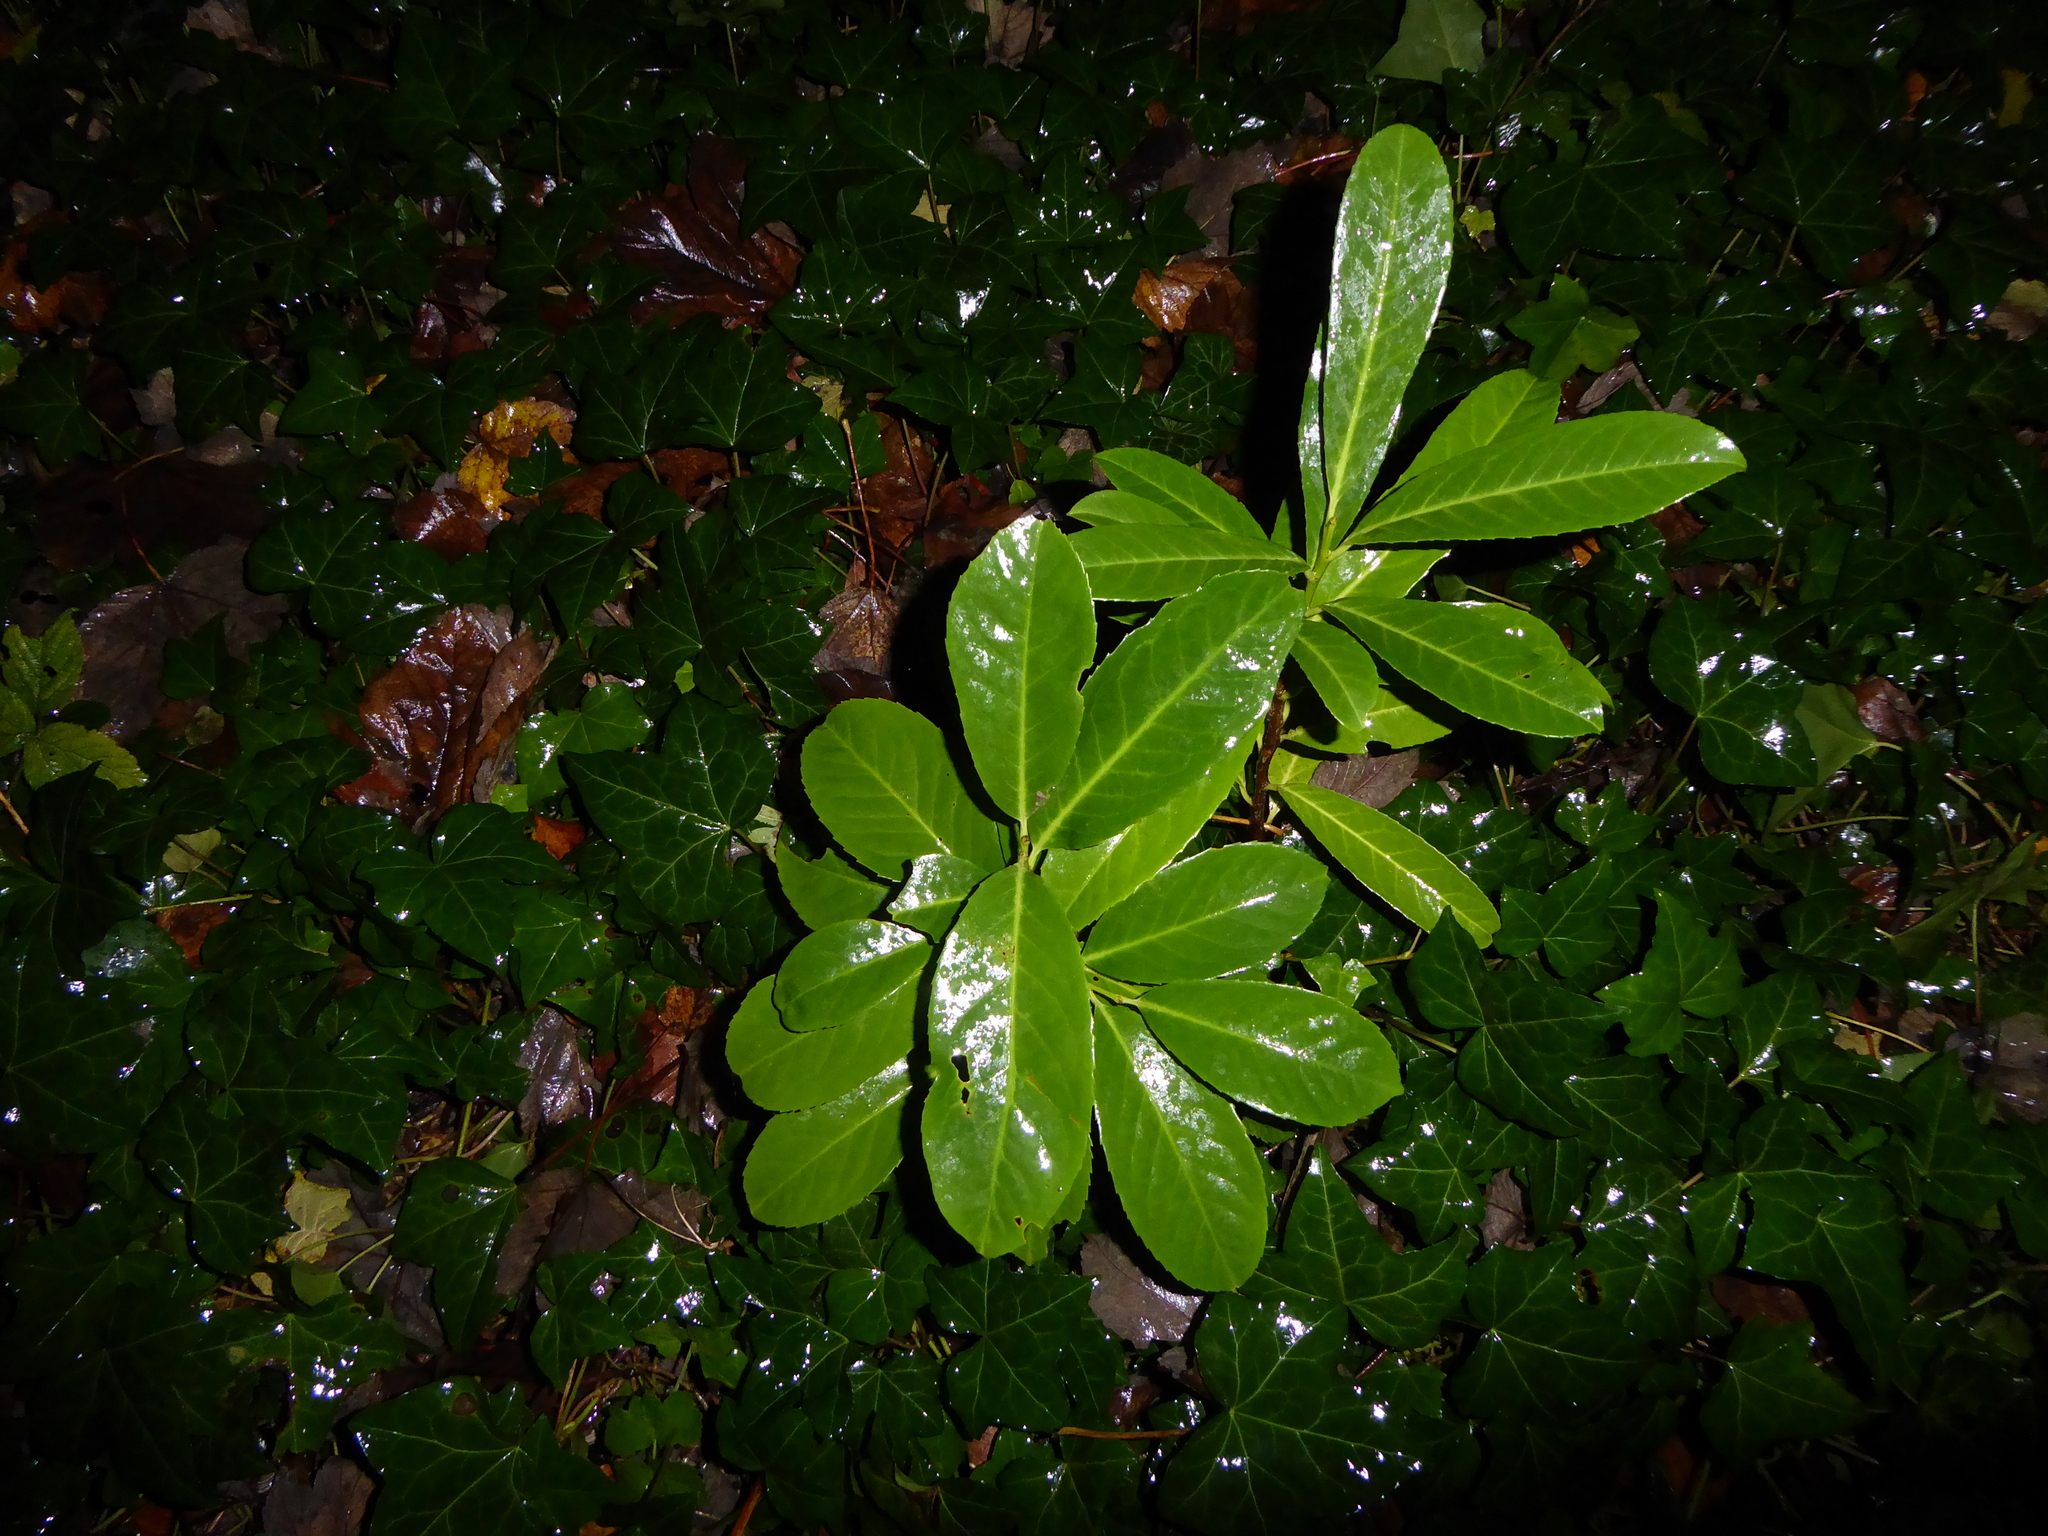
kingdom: Plantae
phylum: Tracheophyta
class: Magnoliopsida
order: Rosales
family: Rosaceae
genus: Prunus
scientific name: Prunus laurocerasus
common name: Cherry laurel
